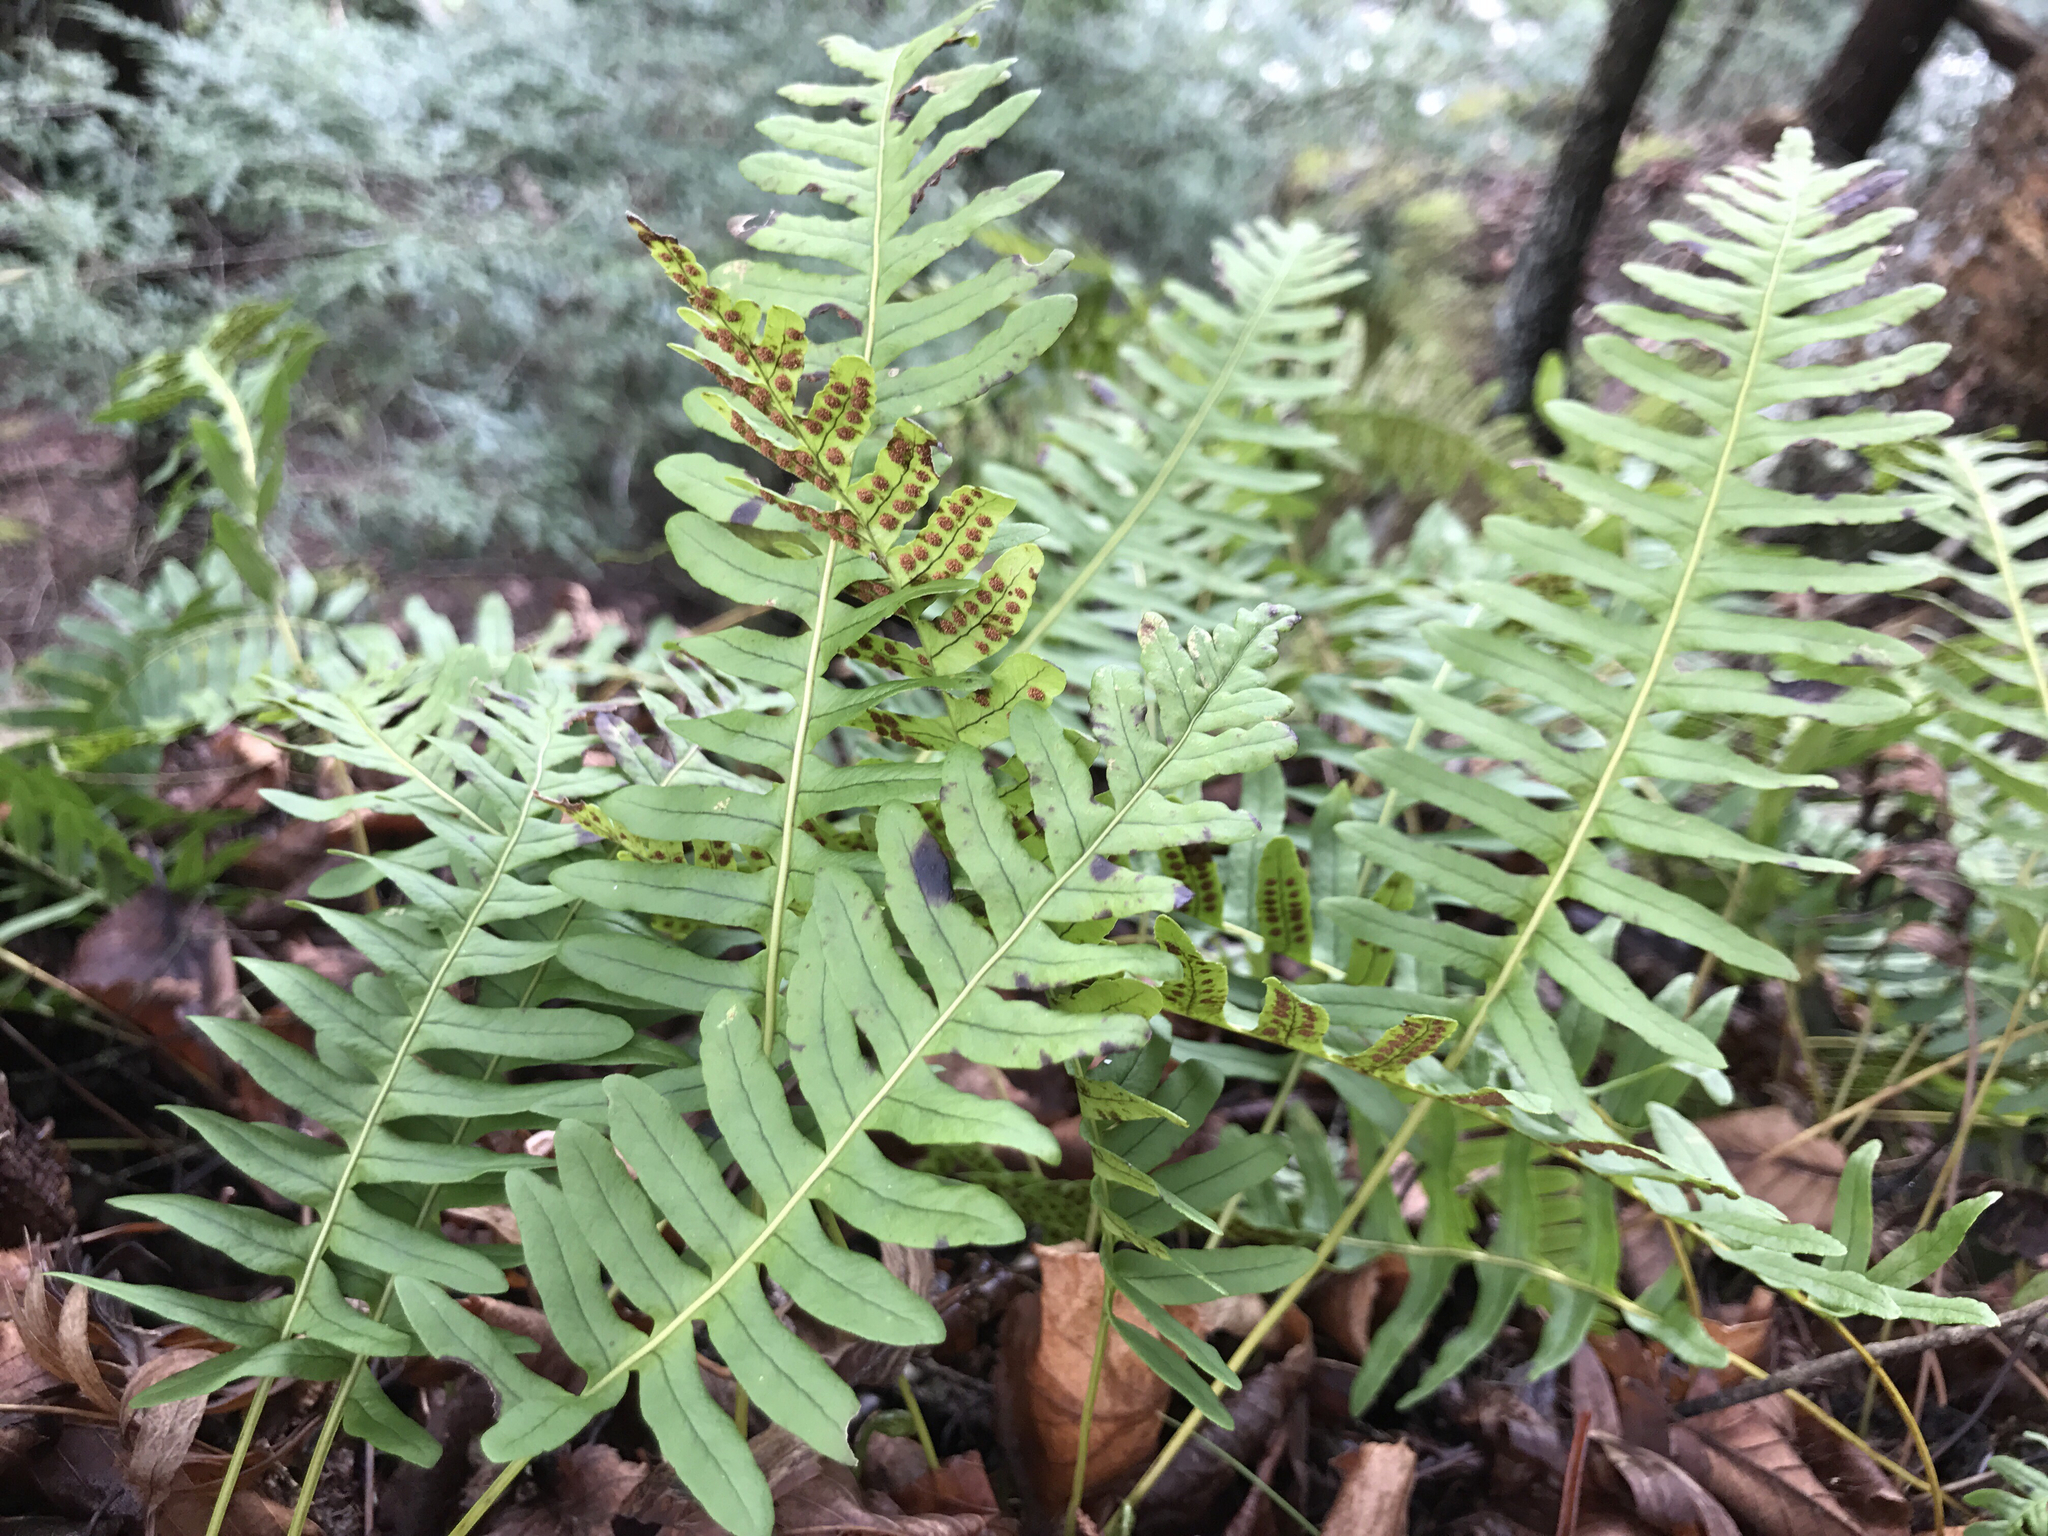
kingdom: Plantae
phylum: Tracheophyta
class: Polypodiopsida
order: Polypodiales
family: Polypodiaceae
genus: Polypodium
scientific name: Polypodium virginianum
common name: American wall fern
